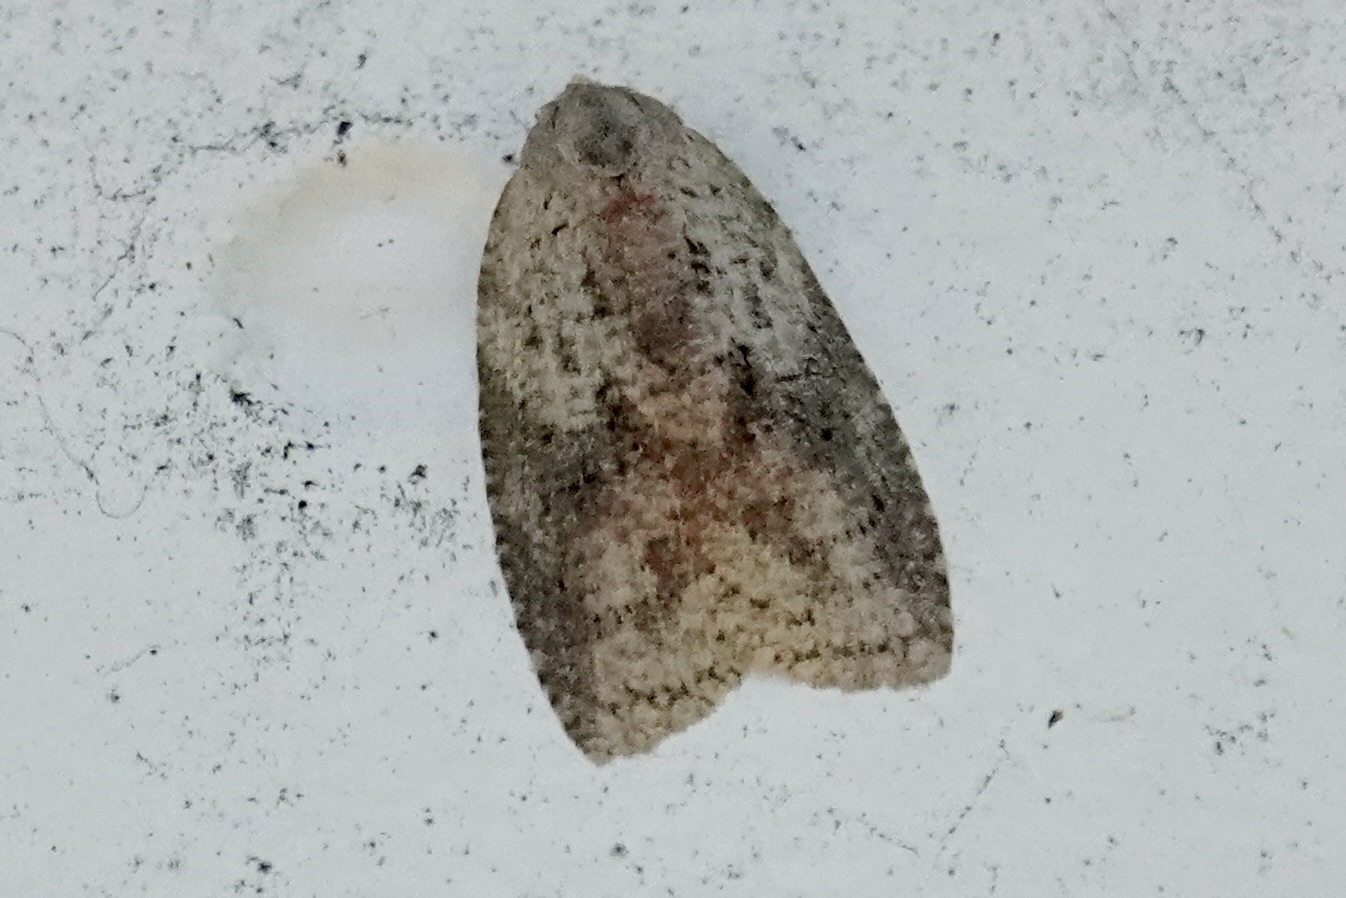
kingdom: Animalia
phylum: Arthropoda
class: Insecta
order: Lepidoptera
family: Tortricidae
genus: Amorbia
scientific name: Amorbia humerosana
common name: White-lined leafroller moth
